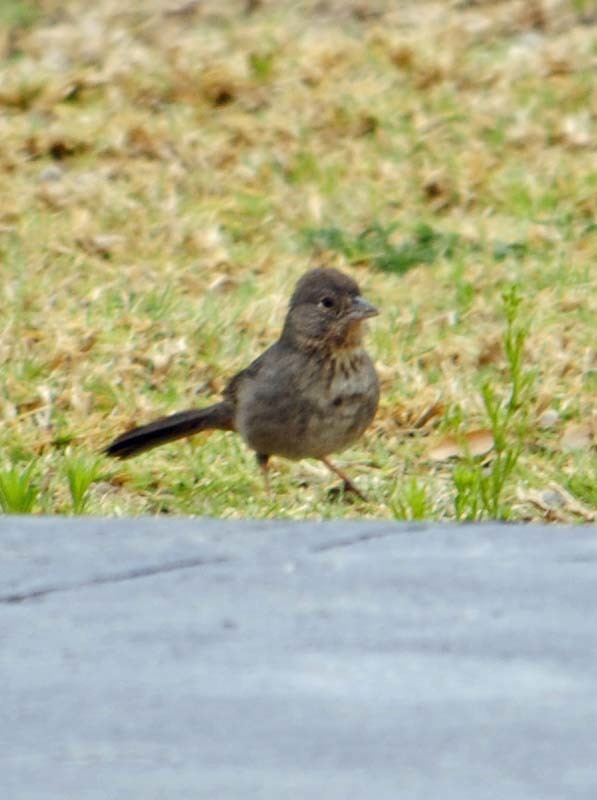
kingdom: Animalia
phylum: Chordata
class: Aves
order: Passeriformes
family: Passerellidae
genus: Melozone
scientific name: Melozone fusca
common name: Canyon towhee
